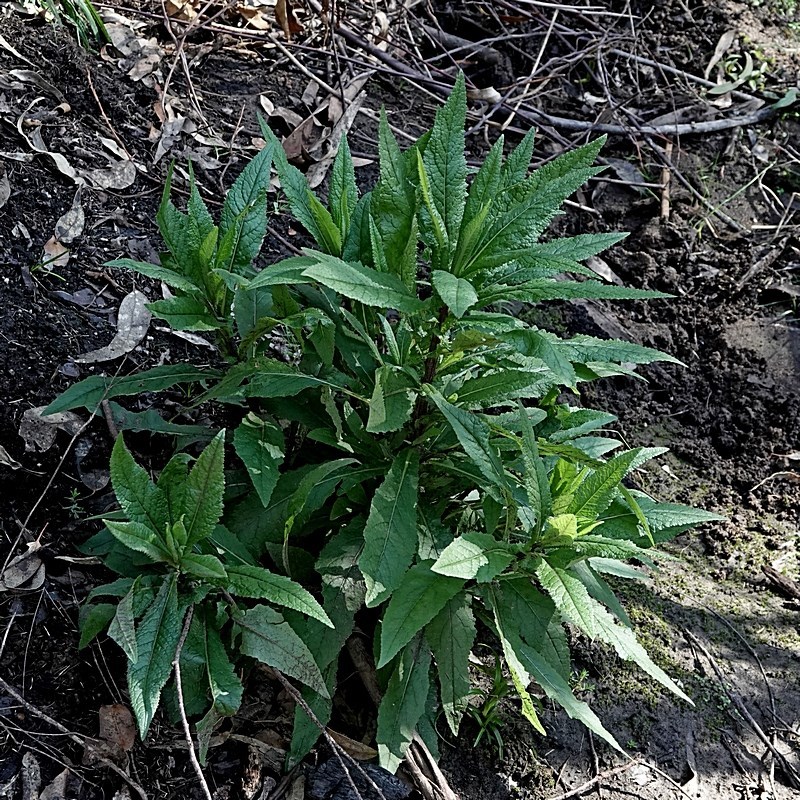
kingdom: Plantae
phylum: Tracheophyta
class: Magnoliopsida
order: Asterales
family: Asteraceae
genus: Senecio
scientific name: Senecio minimus
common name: Toothed fireweed
